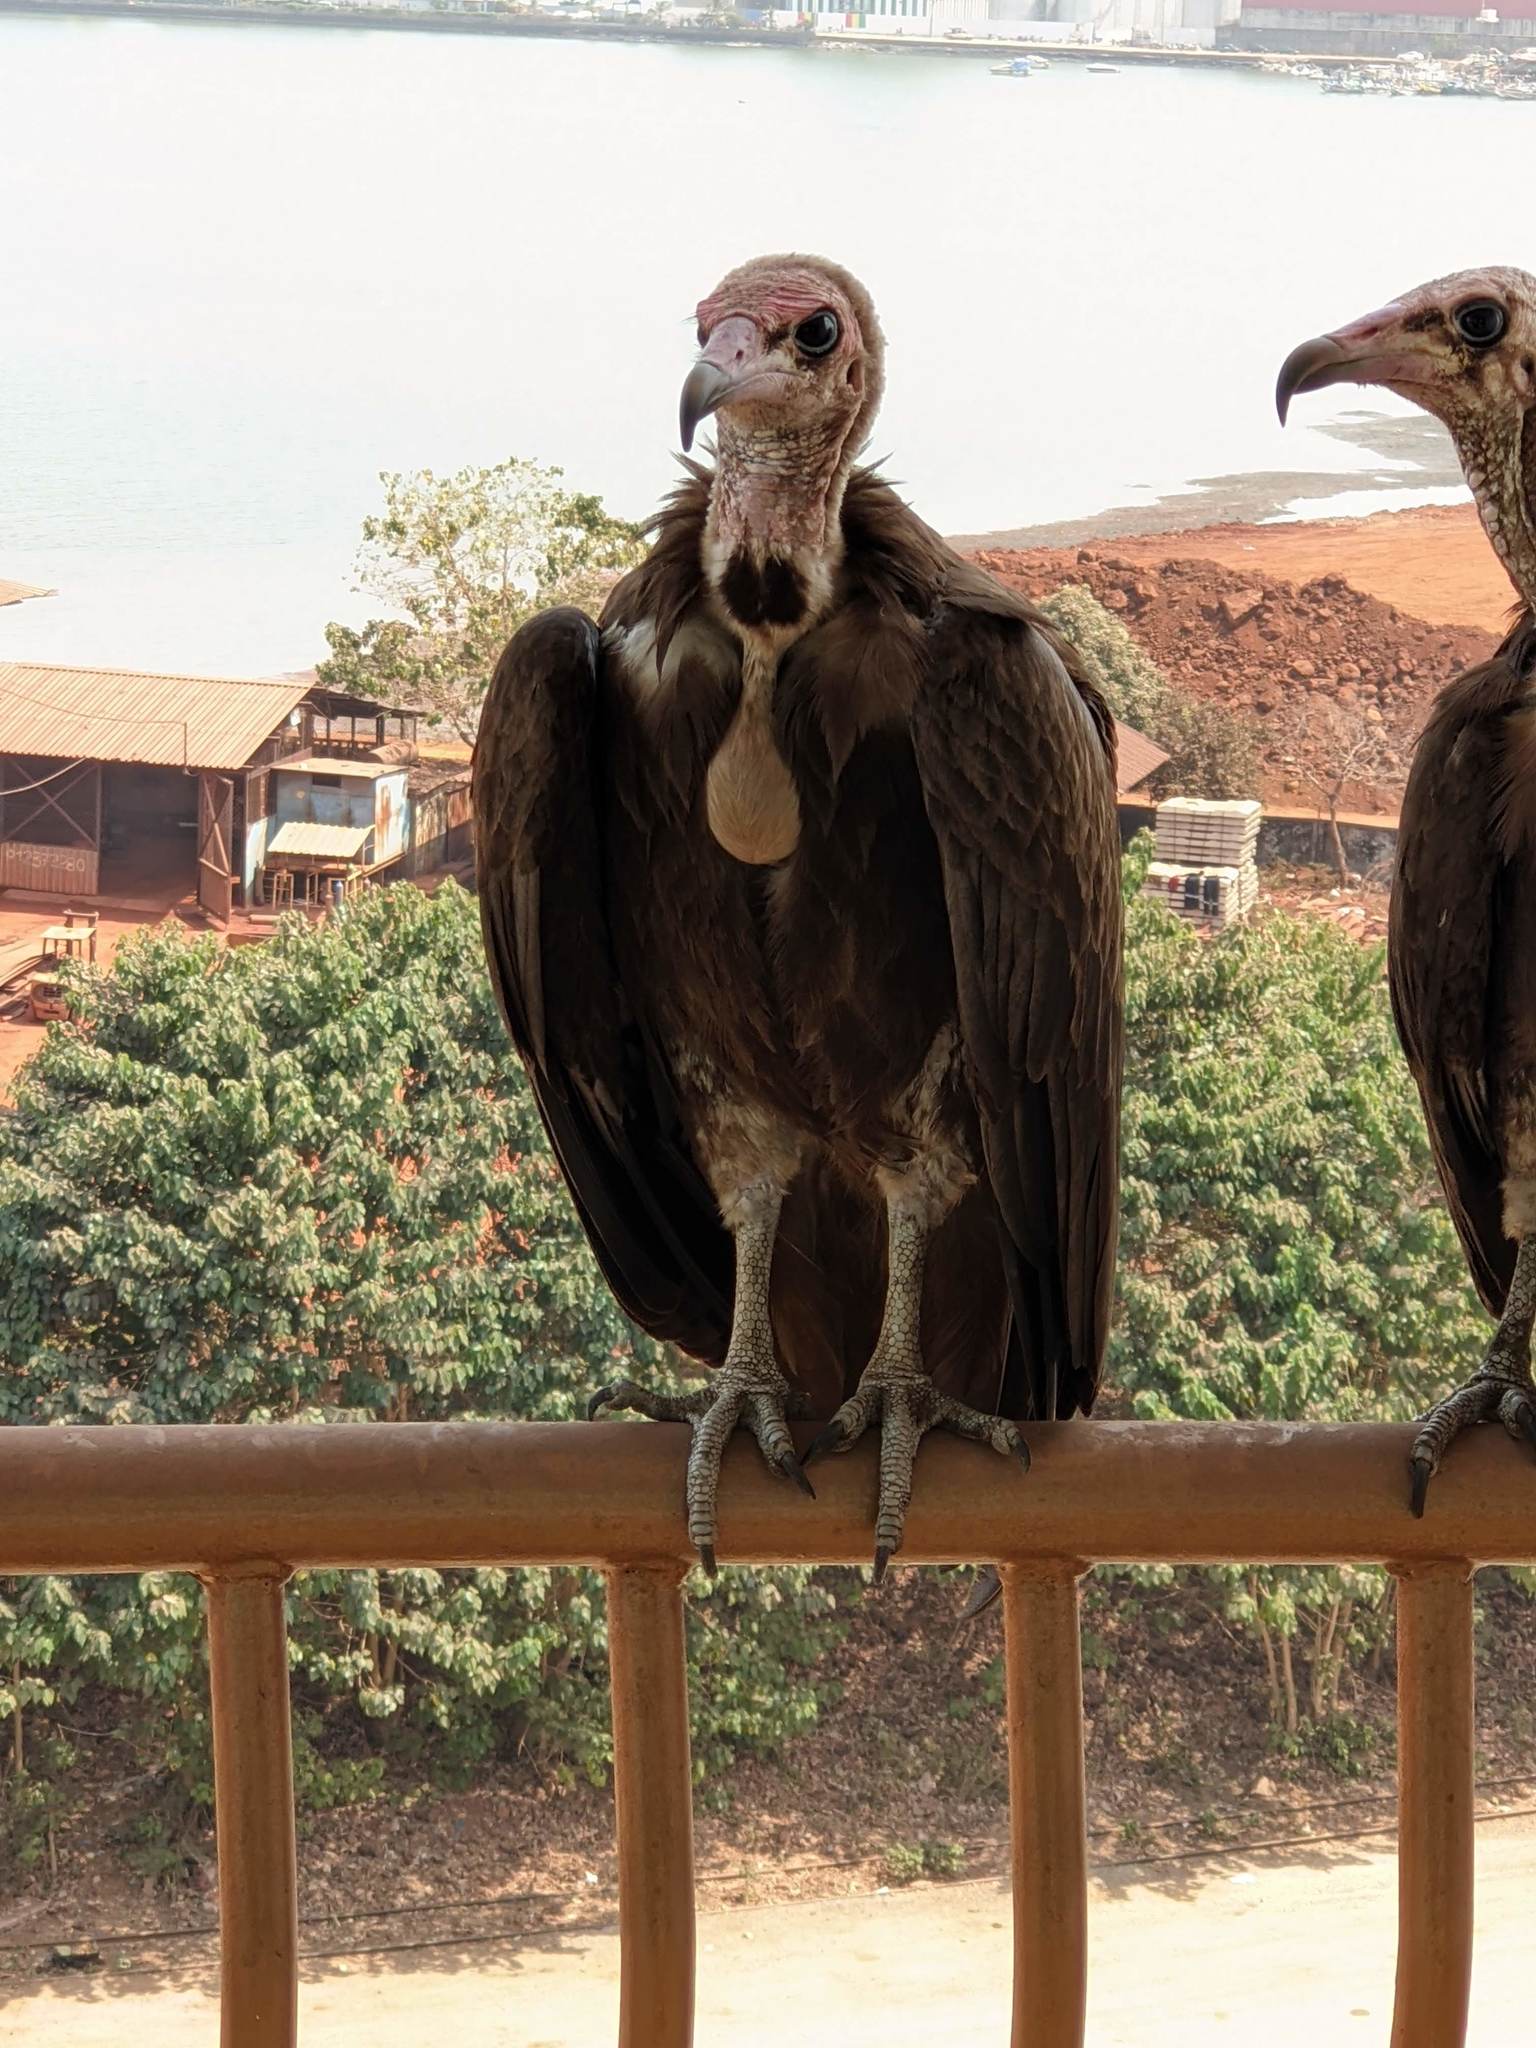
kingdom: Animalia
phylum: Chordata
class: Aves
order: Accipitriformes
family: Accipitridae
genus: Necrosyrtes
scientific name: Necrosyrtes monachus
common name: Hooded vulture
